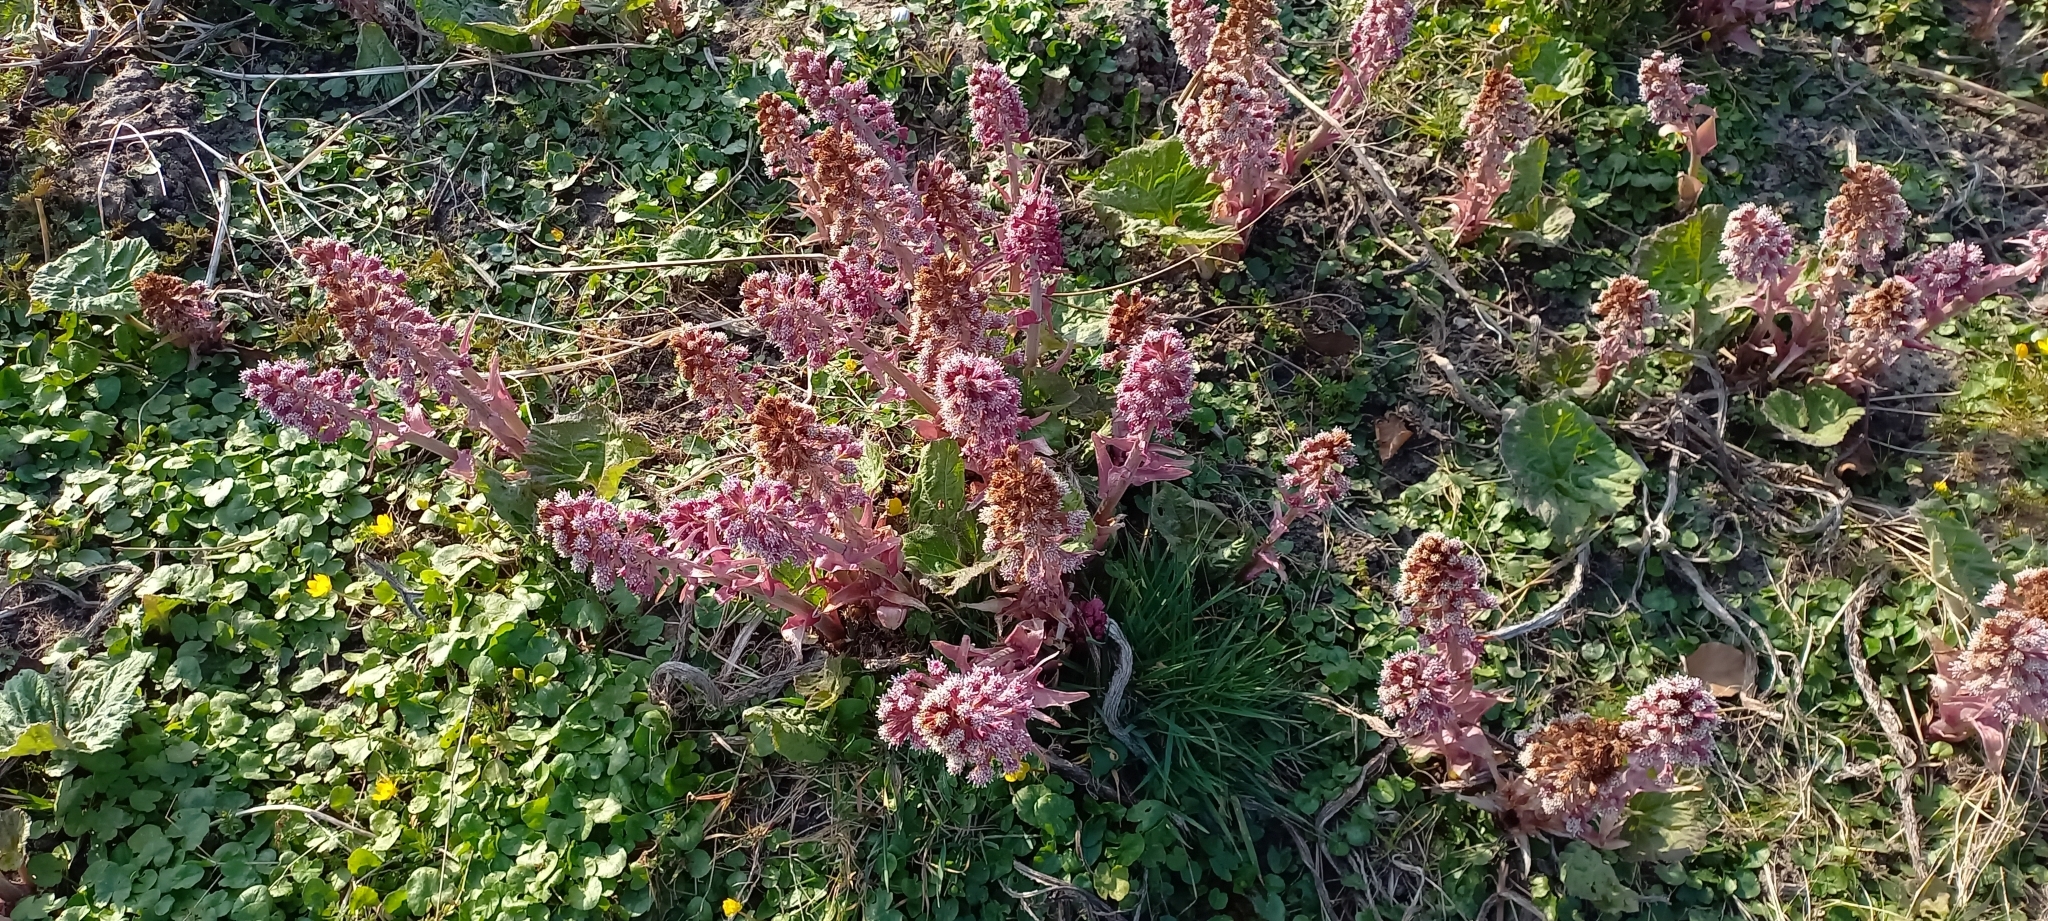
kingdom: Plantae
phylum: Tracheophyta
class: Magnoliopsida
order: Asterales
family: Asteraceae
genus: Petasites
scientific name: Petasites hybridus
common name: Butterbur
